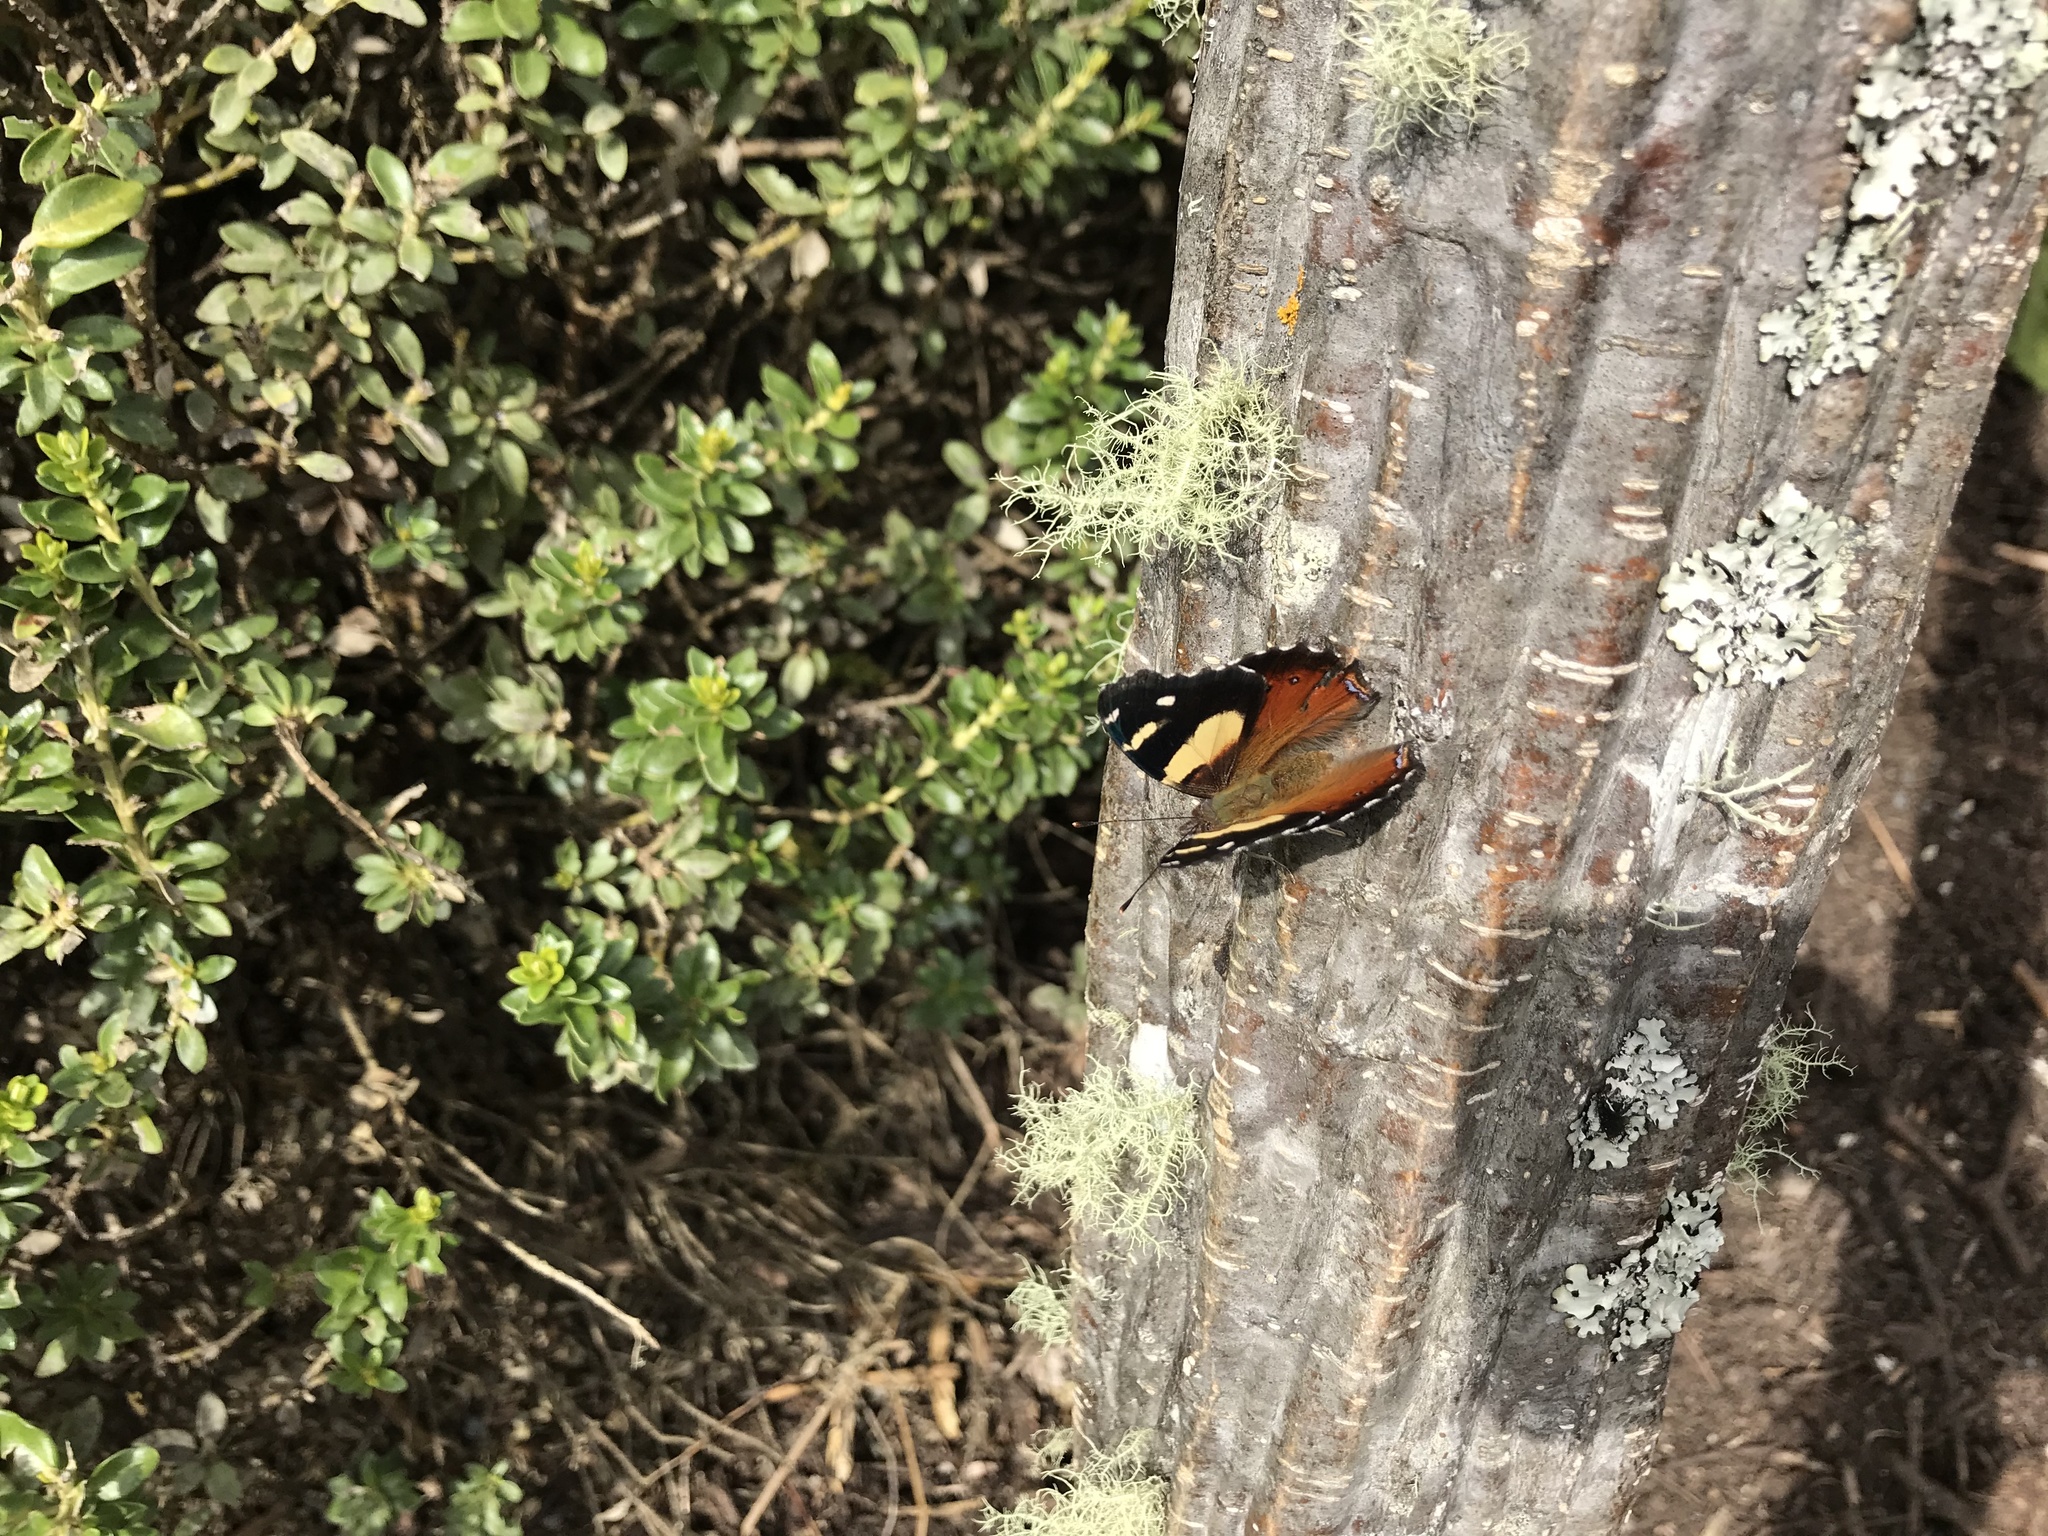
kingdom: Animalia
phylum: Arthropoda
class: Insecta
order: Lepidoptera
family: Nymphalidae
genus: Vanessa
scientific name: Vanessa itea
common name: Yellow admiral
